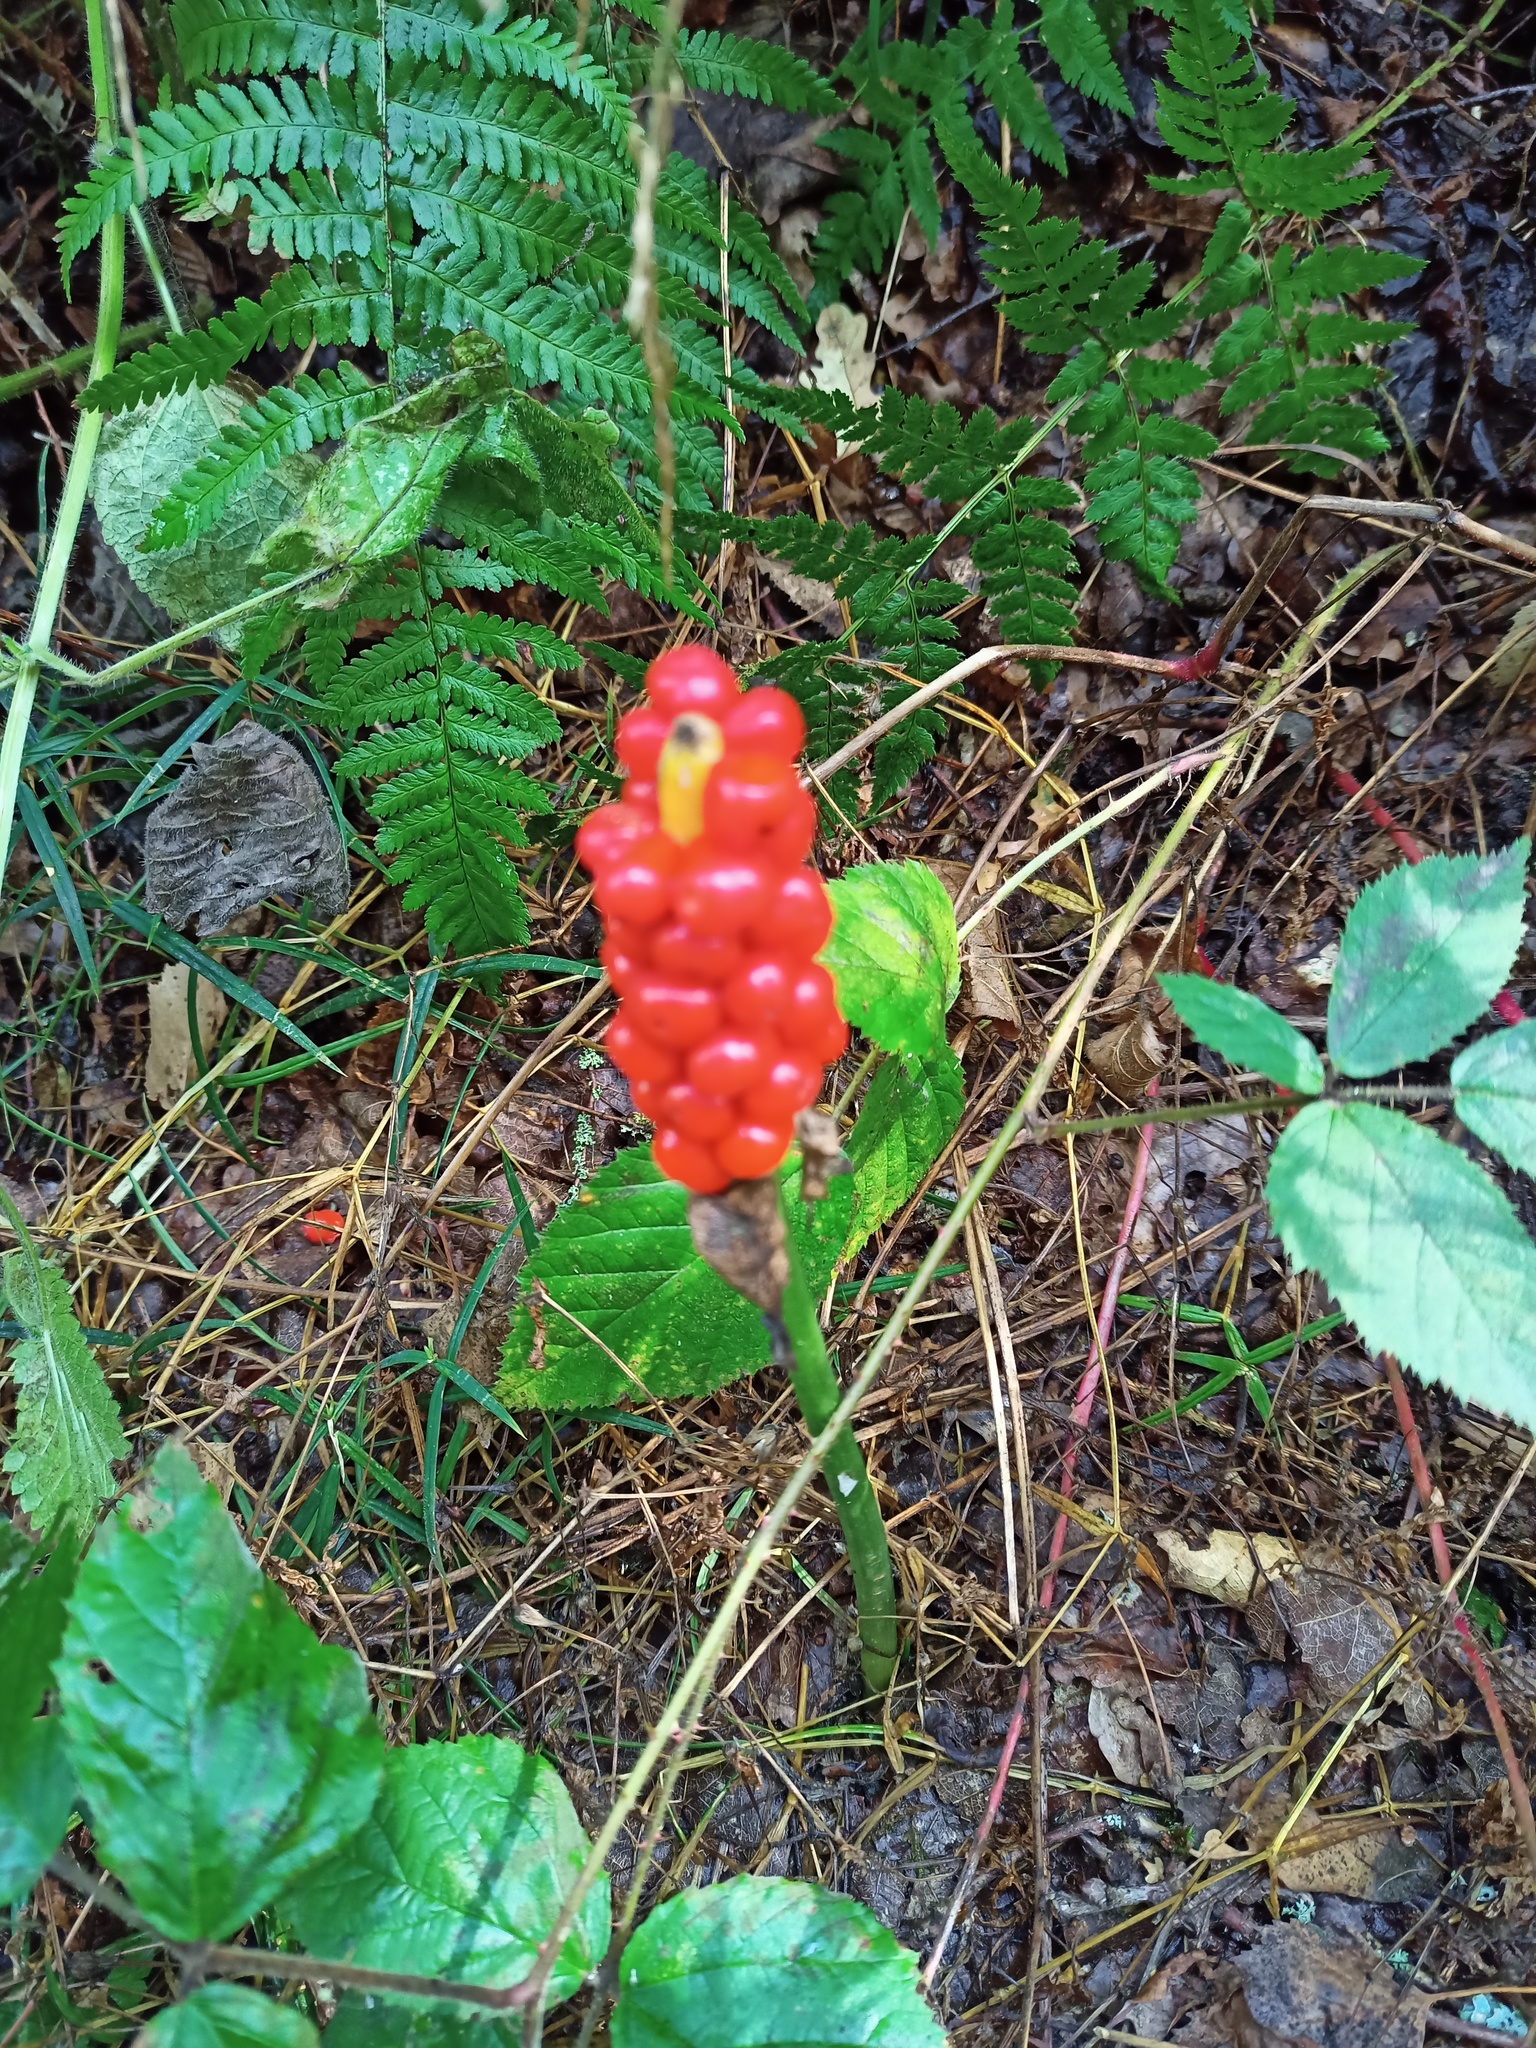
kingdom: Plantae
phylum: Tracheophyta
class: Liliopsida
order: Alismatales
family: Araceae
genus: Arum
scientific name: Arum maculatum
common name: Lords-and-ladies
